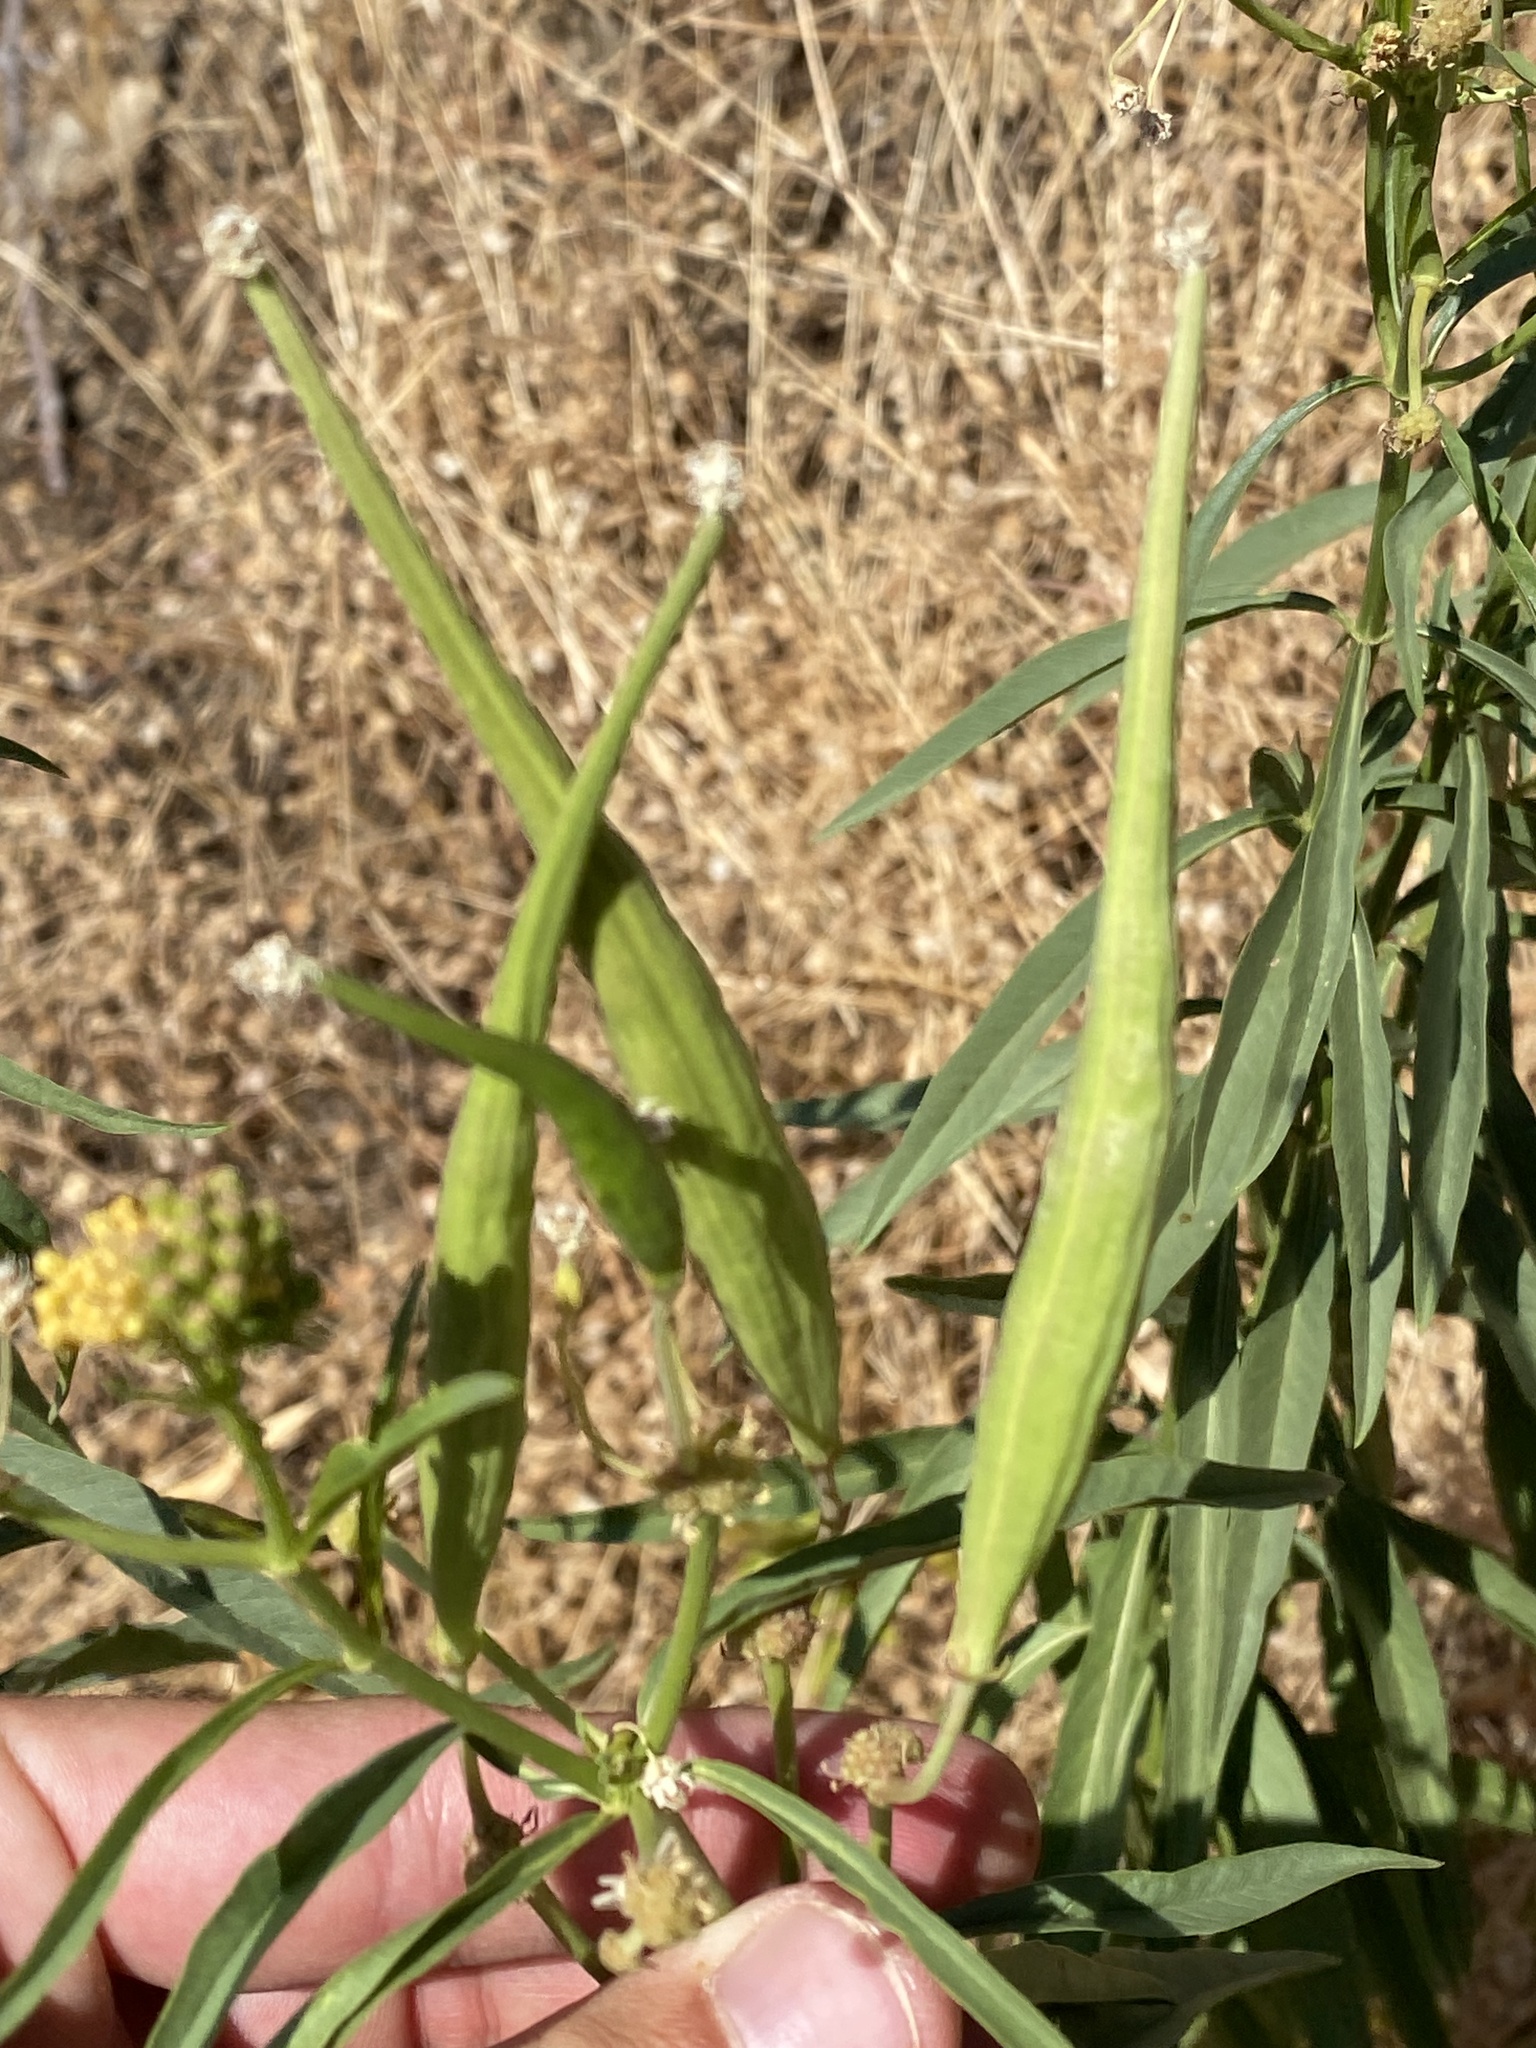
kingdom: Plantae
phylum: Tracheophyta
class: Magnoliopsida
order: Gentianales
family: Apocynaceae
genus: Asclepias
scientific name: Asclepias fascicularis
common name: Mexican milkweed
